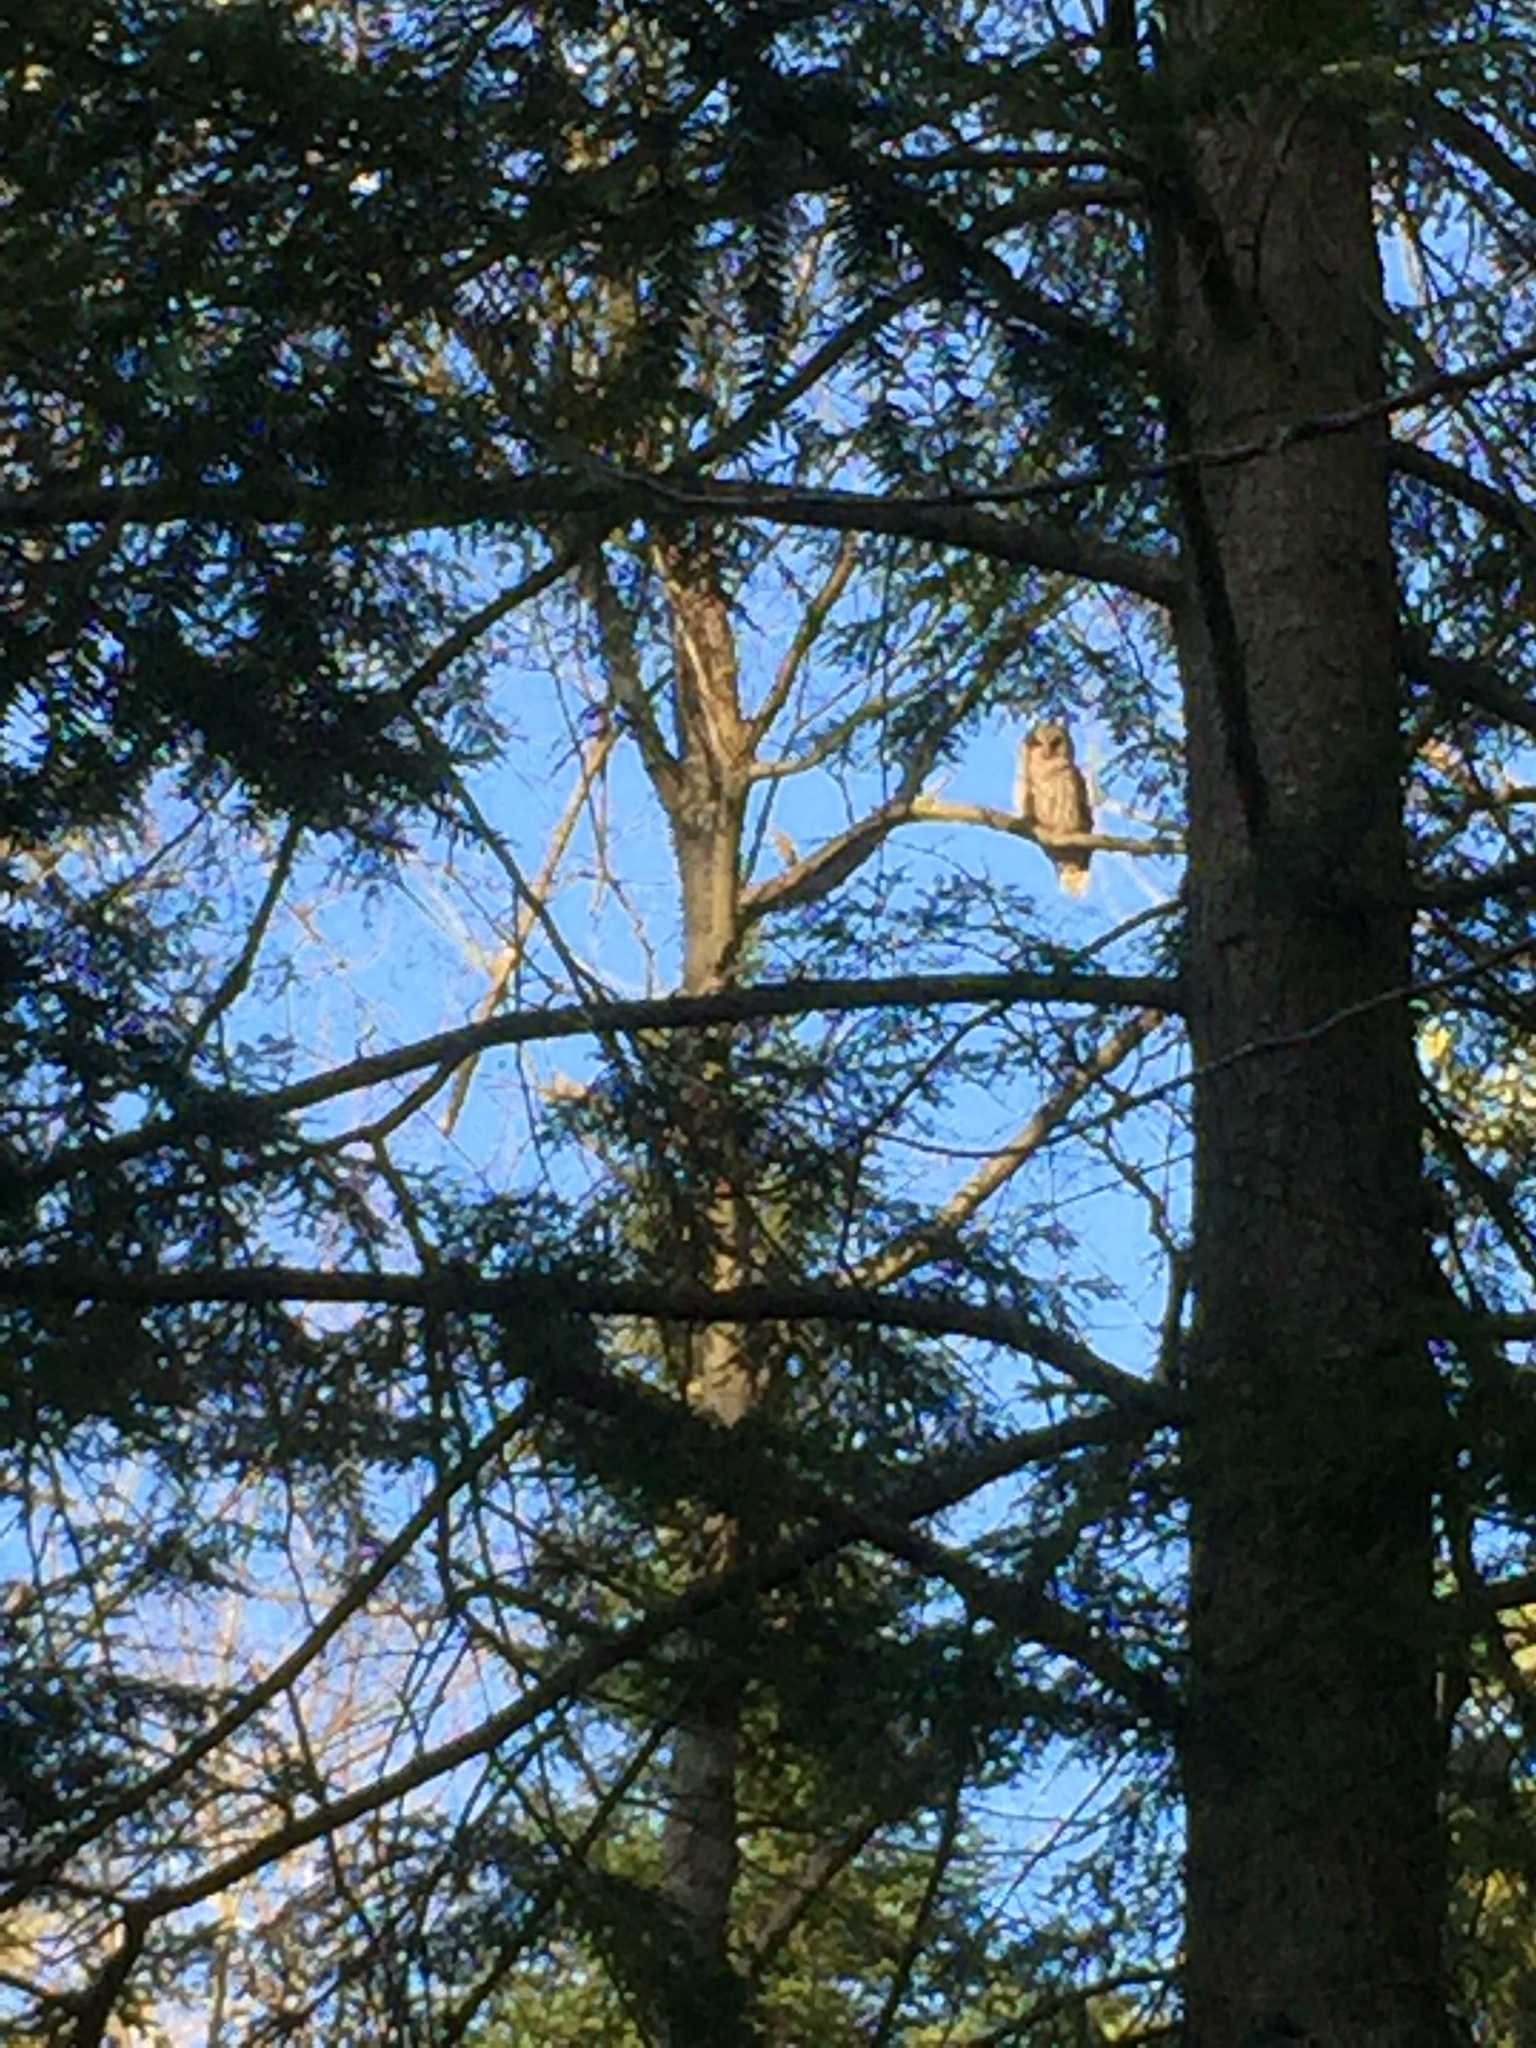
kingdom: Animalia
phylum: Chordata
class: Aves
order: Strigiformes
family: Strigidae
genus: Strix
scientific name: Strix varia
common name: Barred owl
